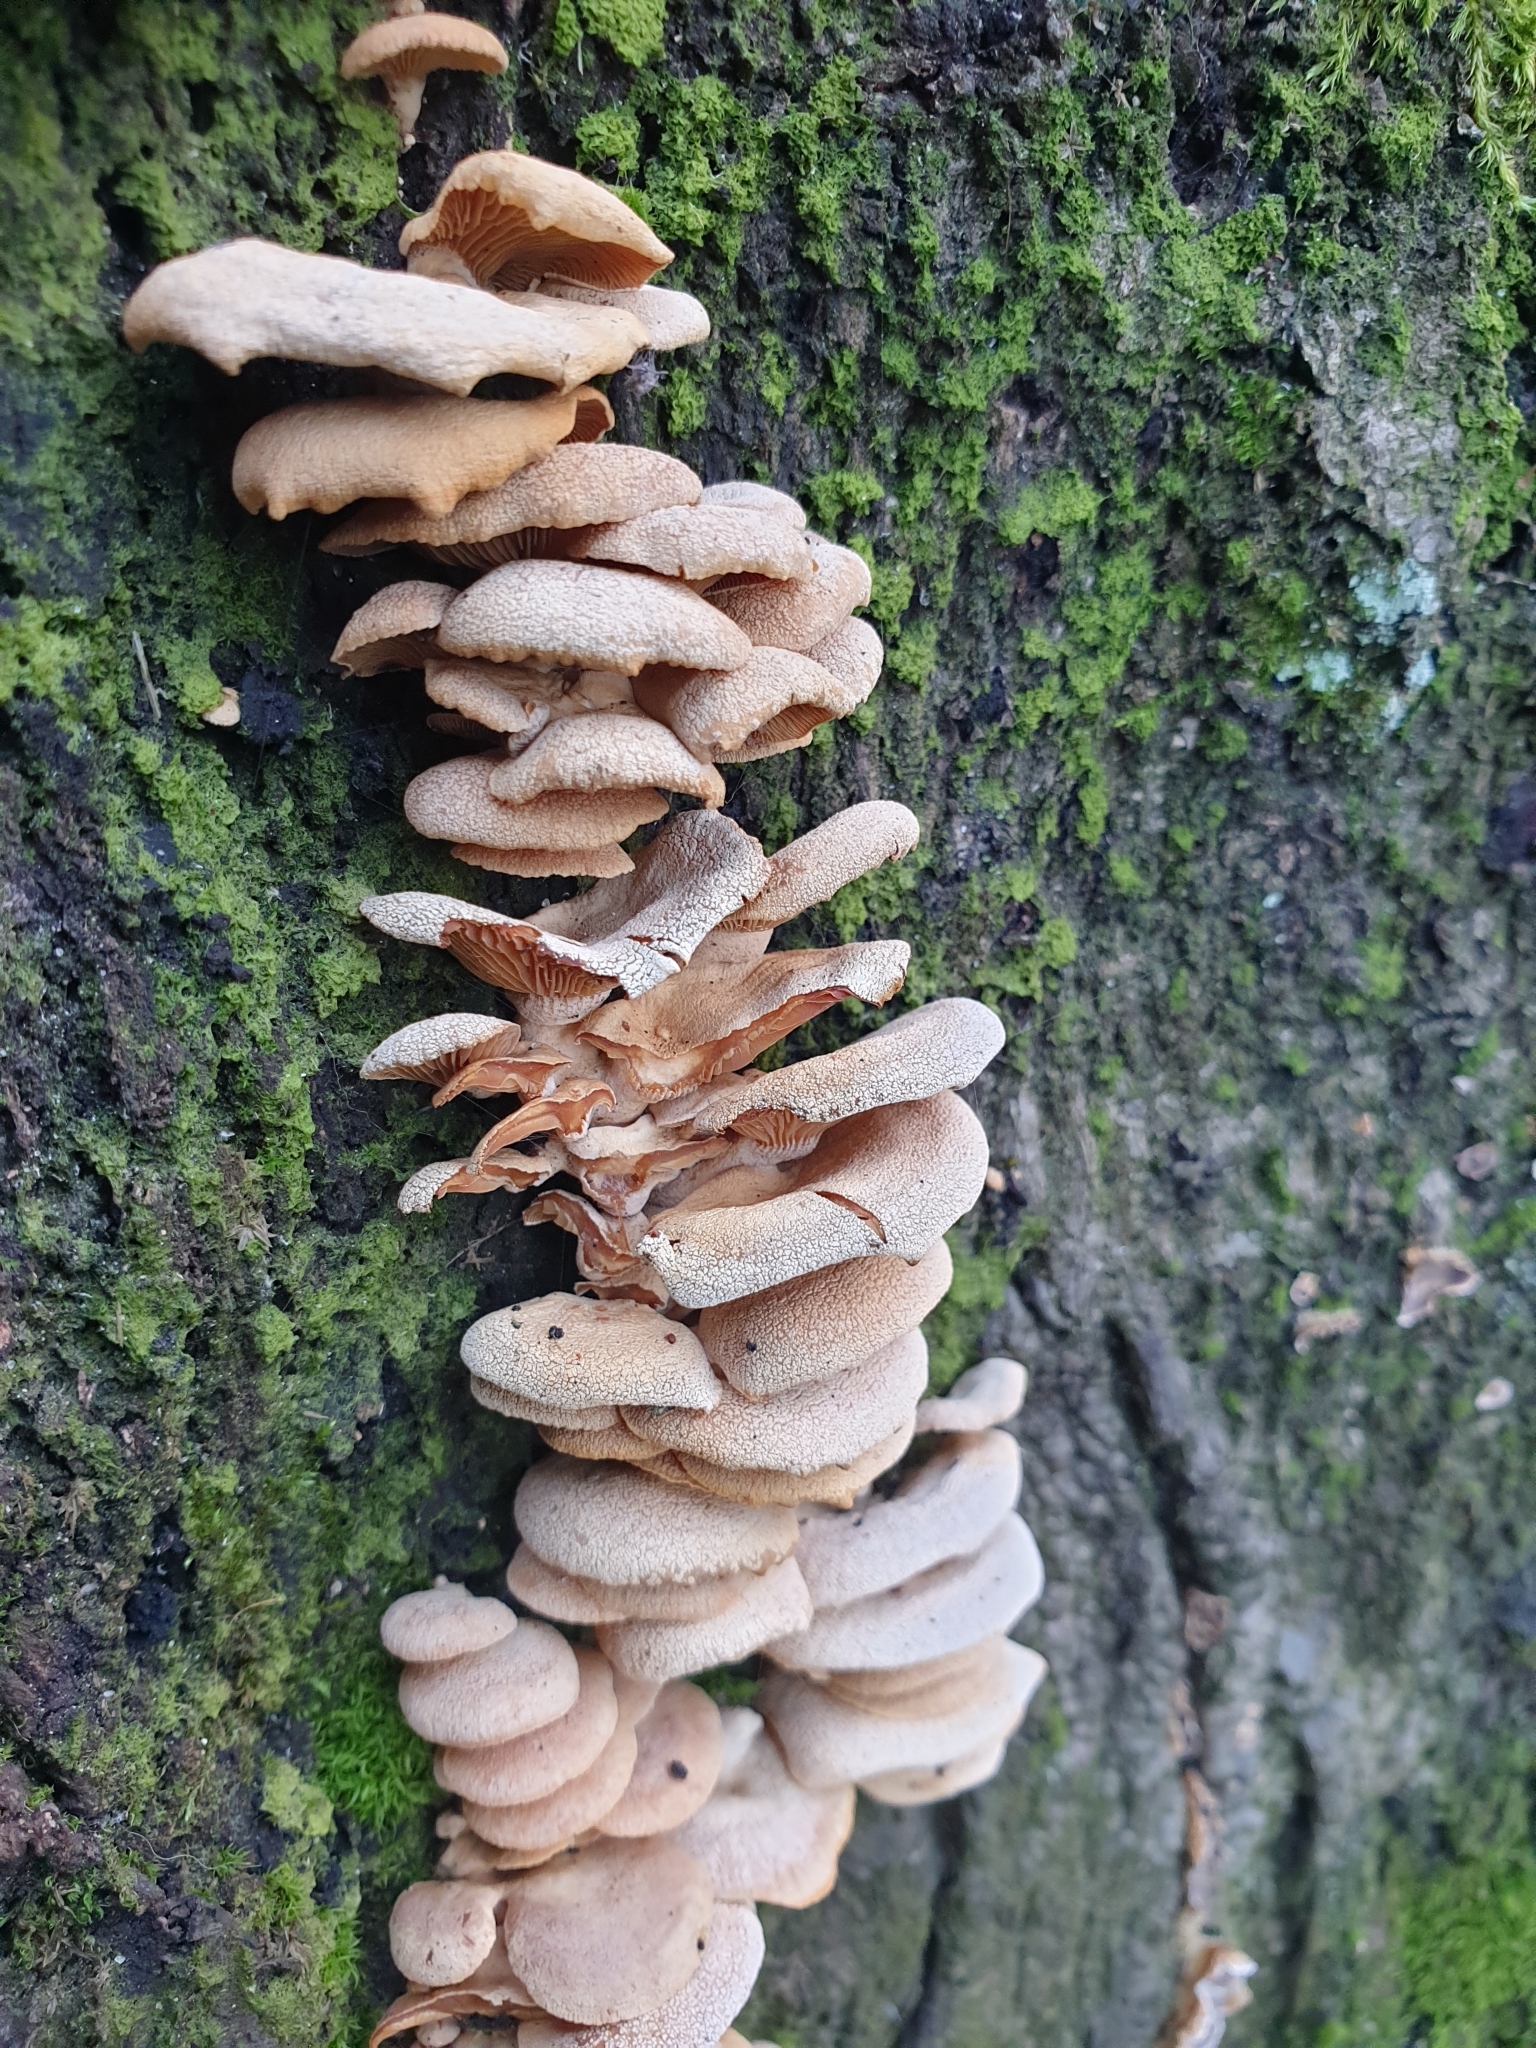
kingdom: Fungi
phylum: Basidiomycota
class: Agaricomycetes
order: Agaricales
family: Mycenaceae
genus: Panellus
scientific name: Panellus stipticus
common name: Bitter oysterling
